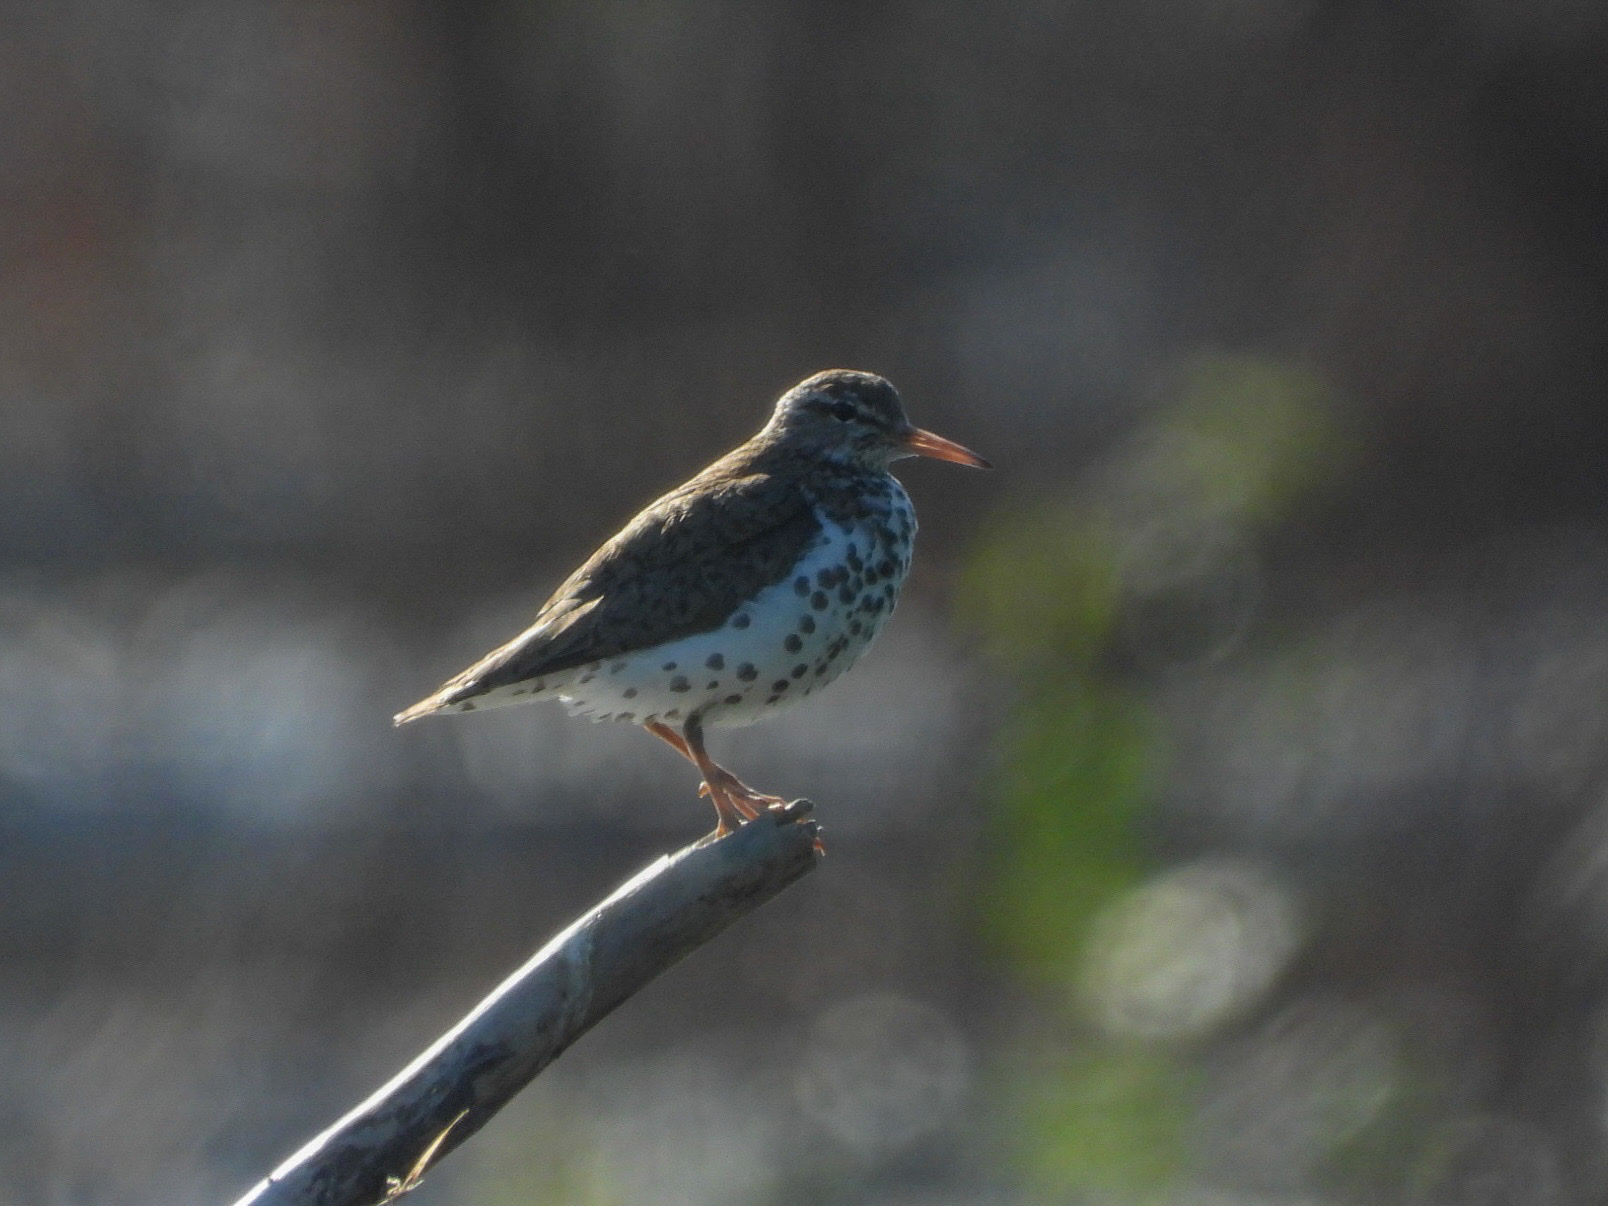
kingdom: Animalia
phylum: Chordata
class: Aves
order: Charadriiformes
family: Scolopacidae
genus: Actitis
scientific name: Actitis macularius
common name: Spotted sandpiper
